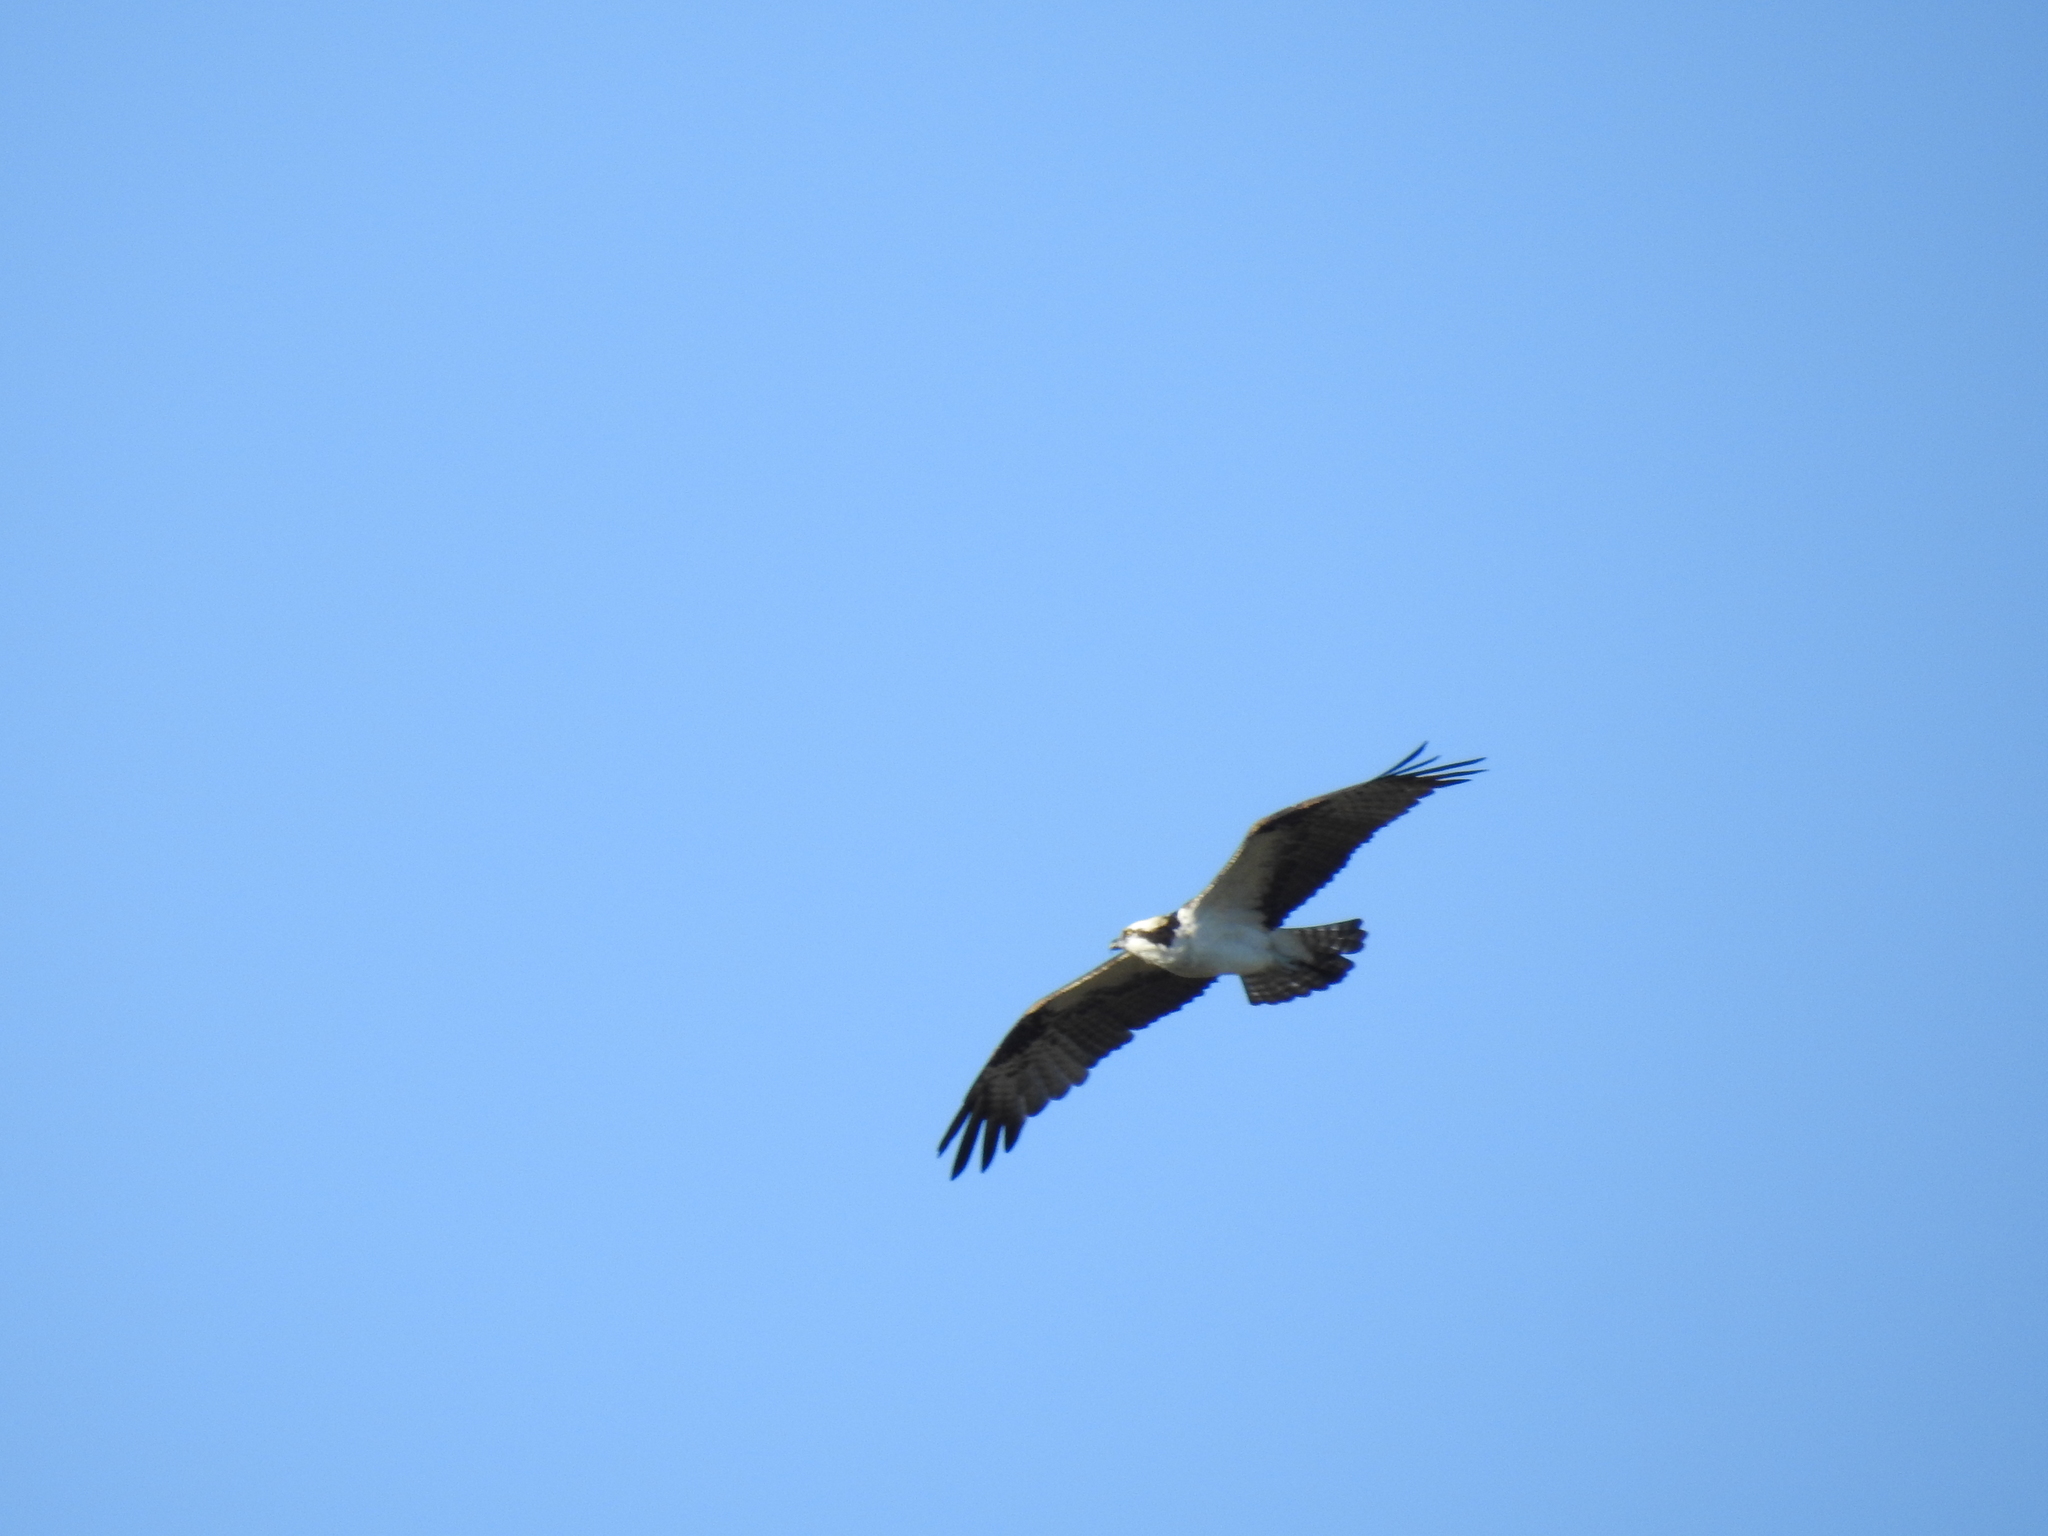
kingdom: Animalia
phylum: Chordata
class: Aves
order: Accipitriformes
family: Pandionidae
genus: Pandion
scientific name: Pandion haliaetus
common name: Osprey
